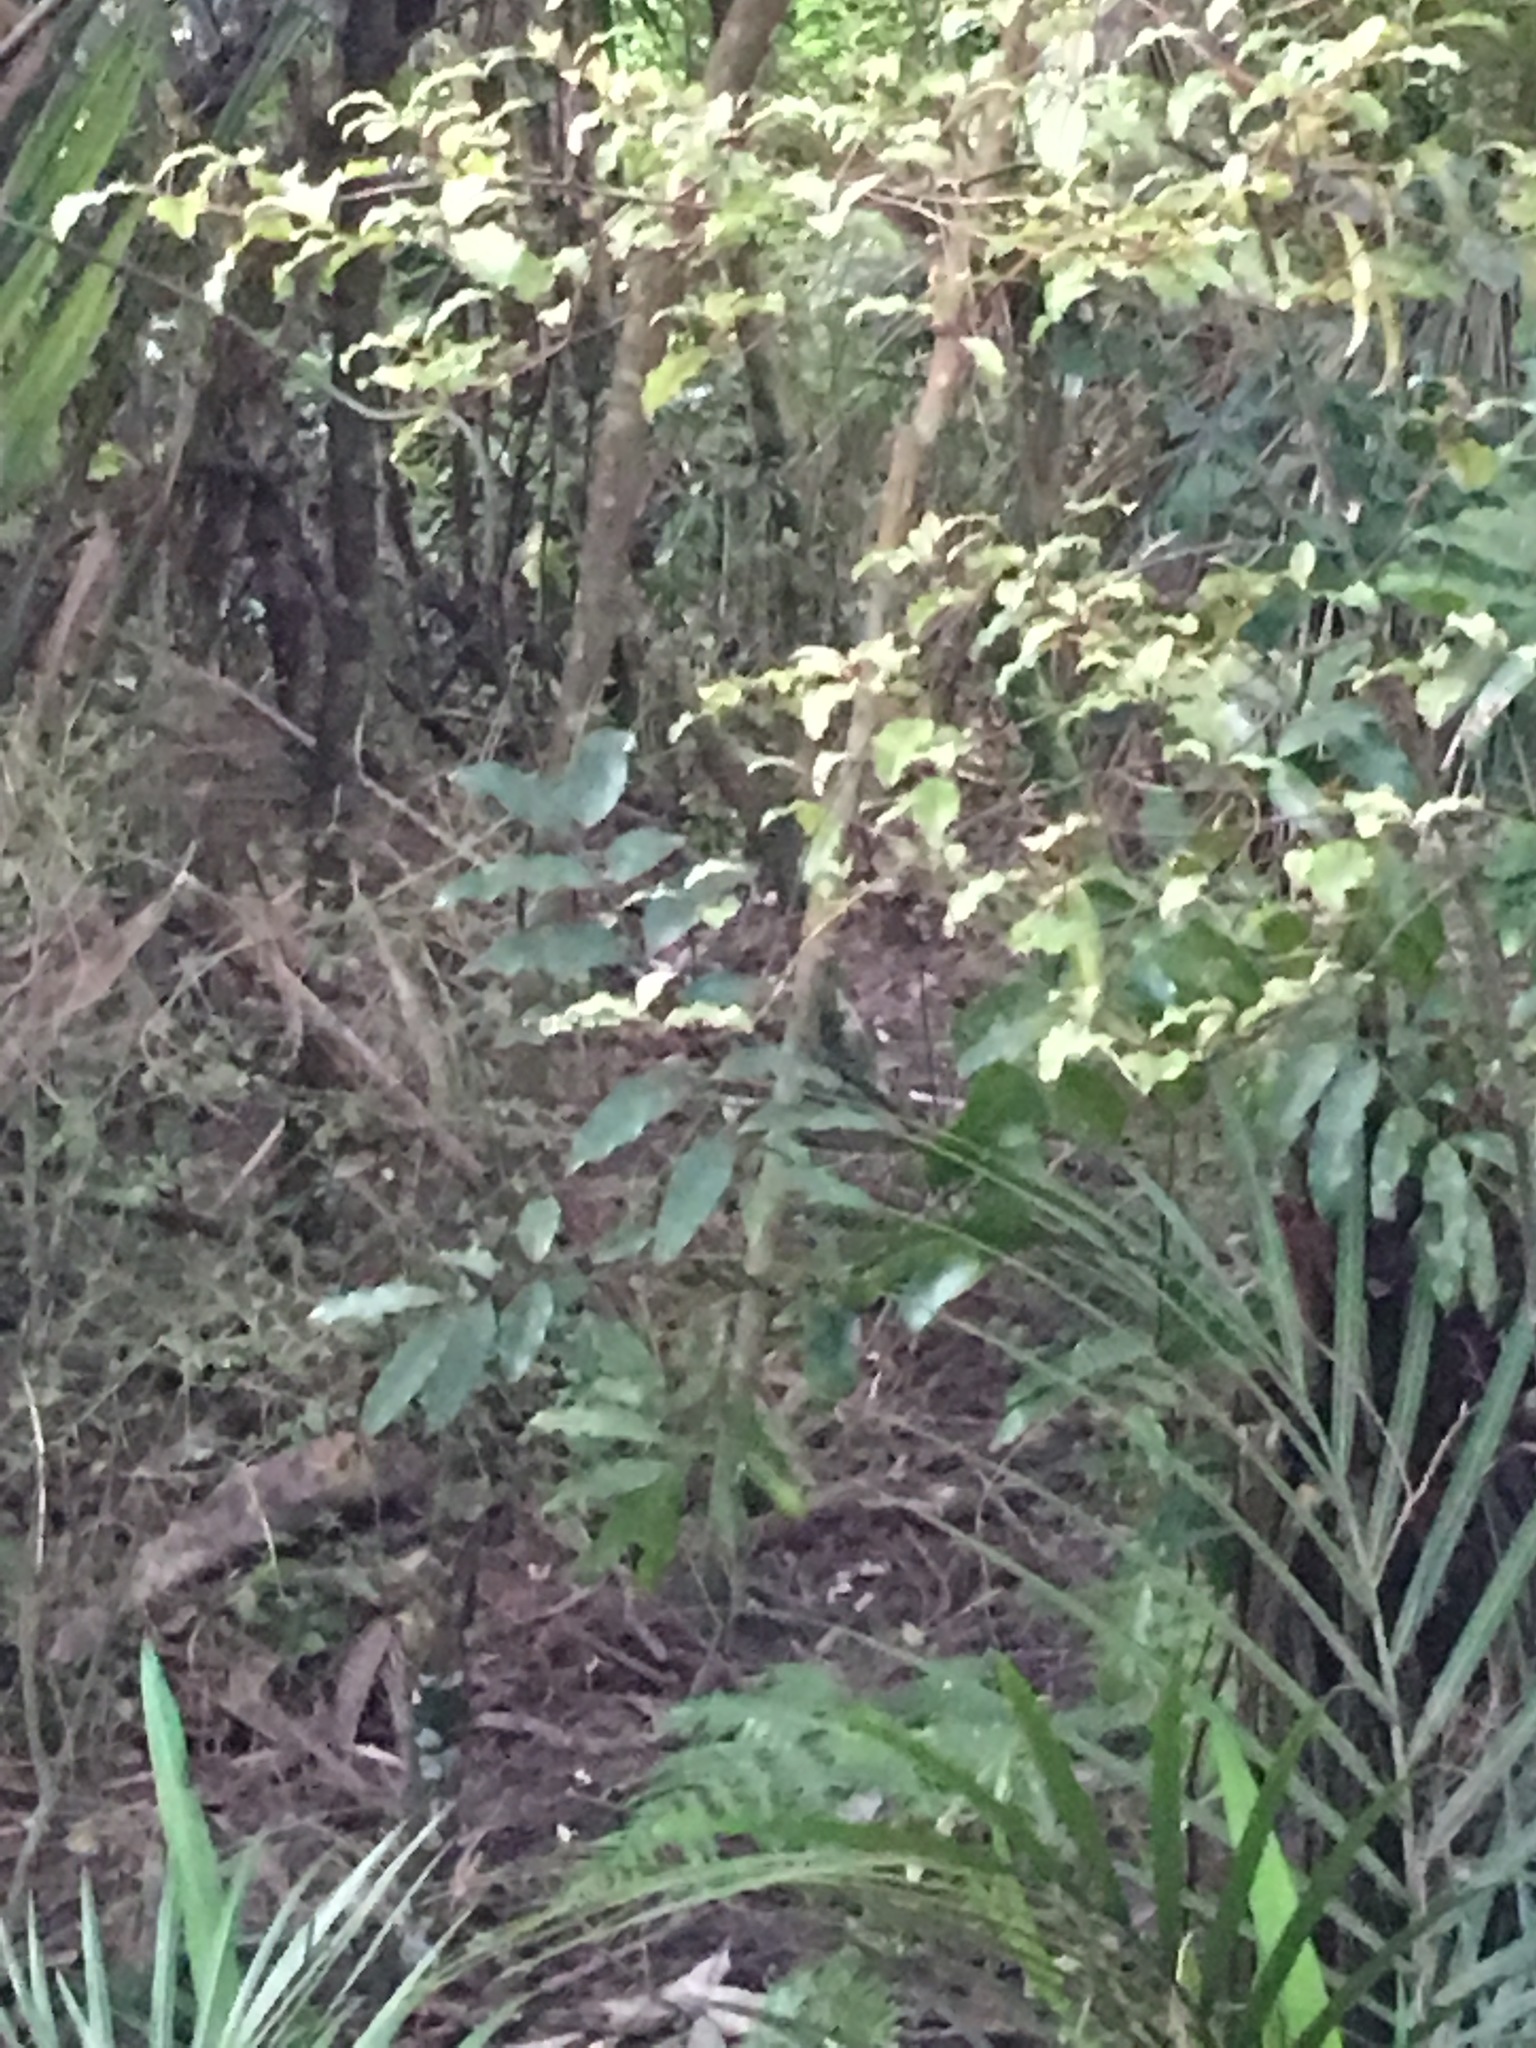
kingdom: Plantae
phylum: Tracheophyta
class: Magnoliopsida
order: Ericales
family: Primulaceae
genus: Myrsine
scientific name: Myrsine australis
